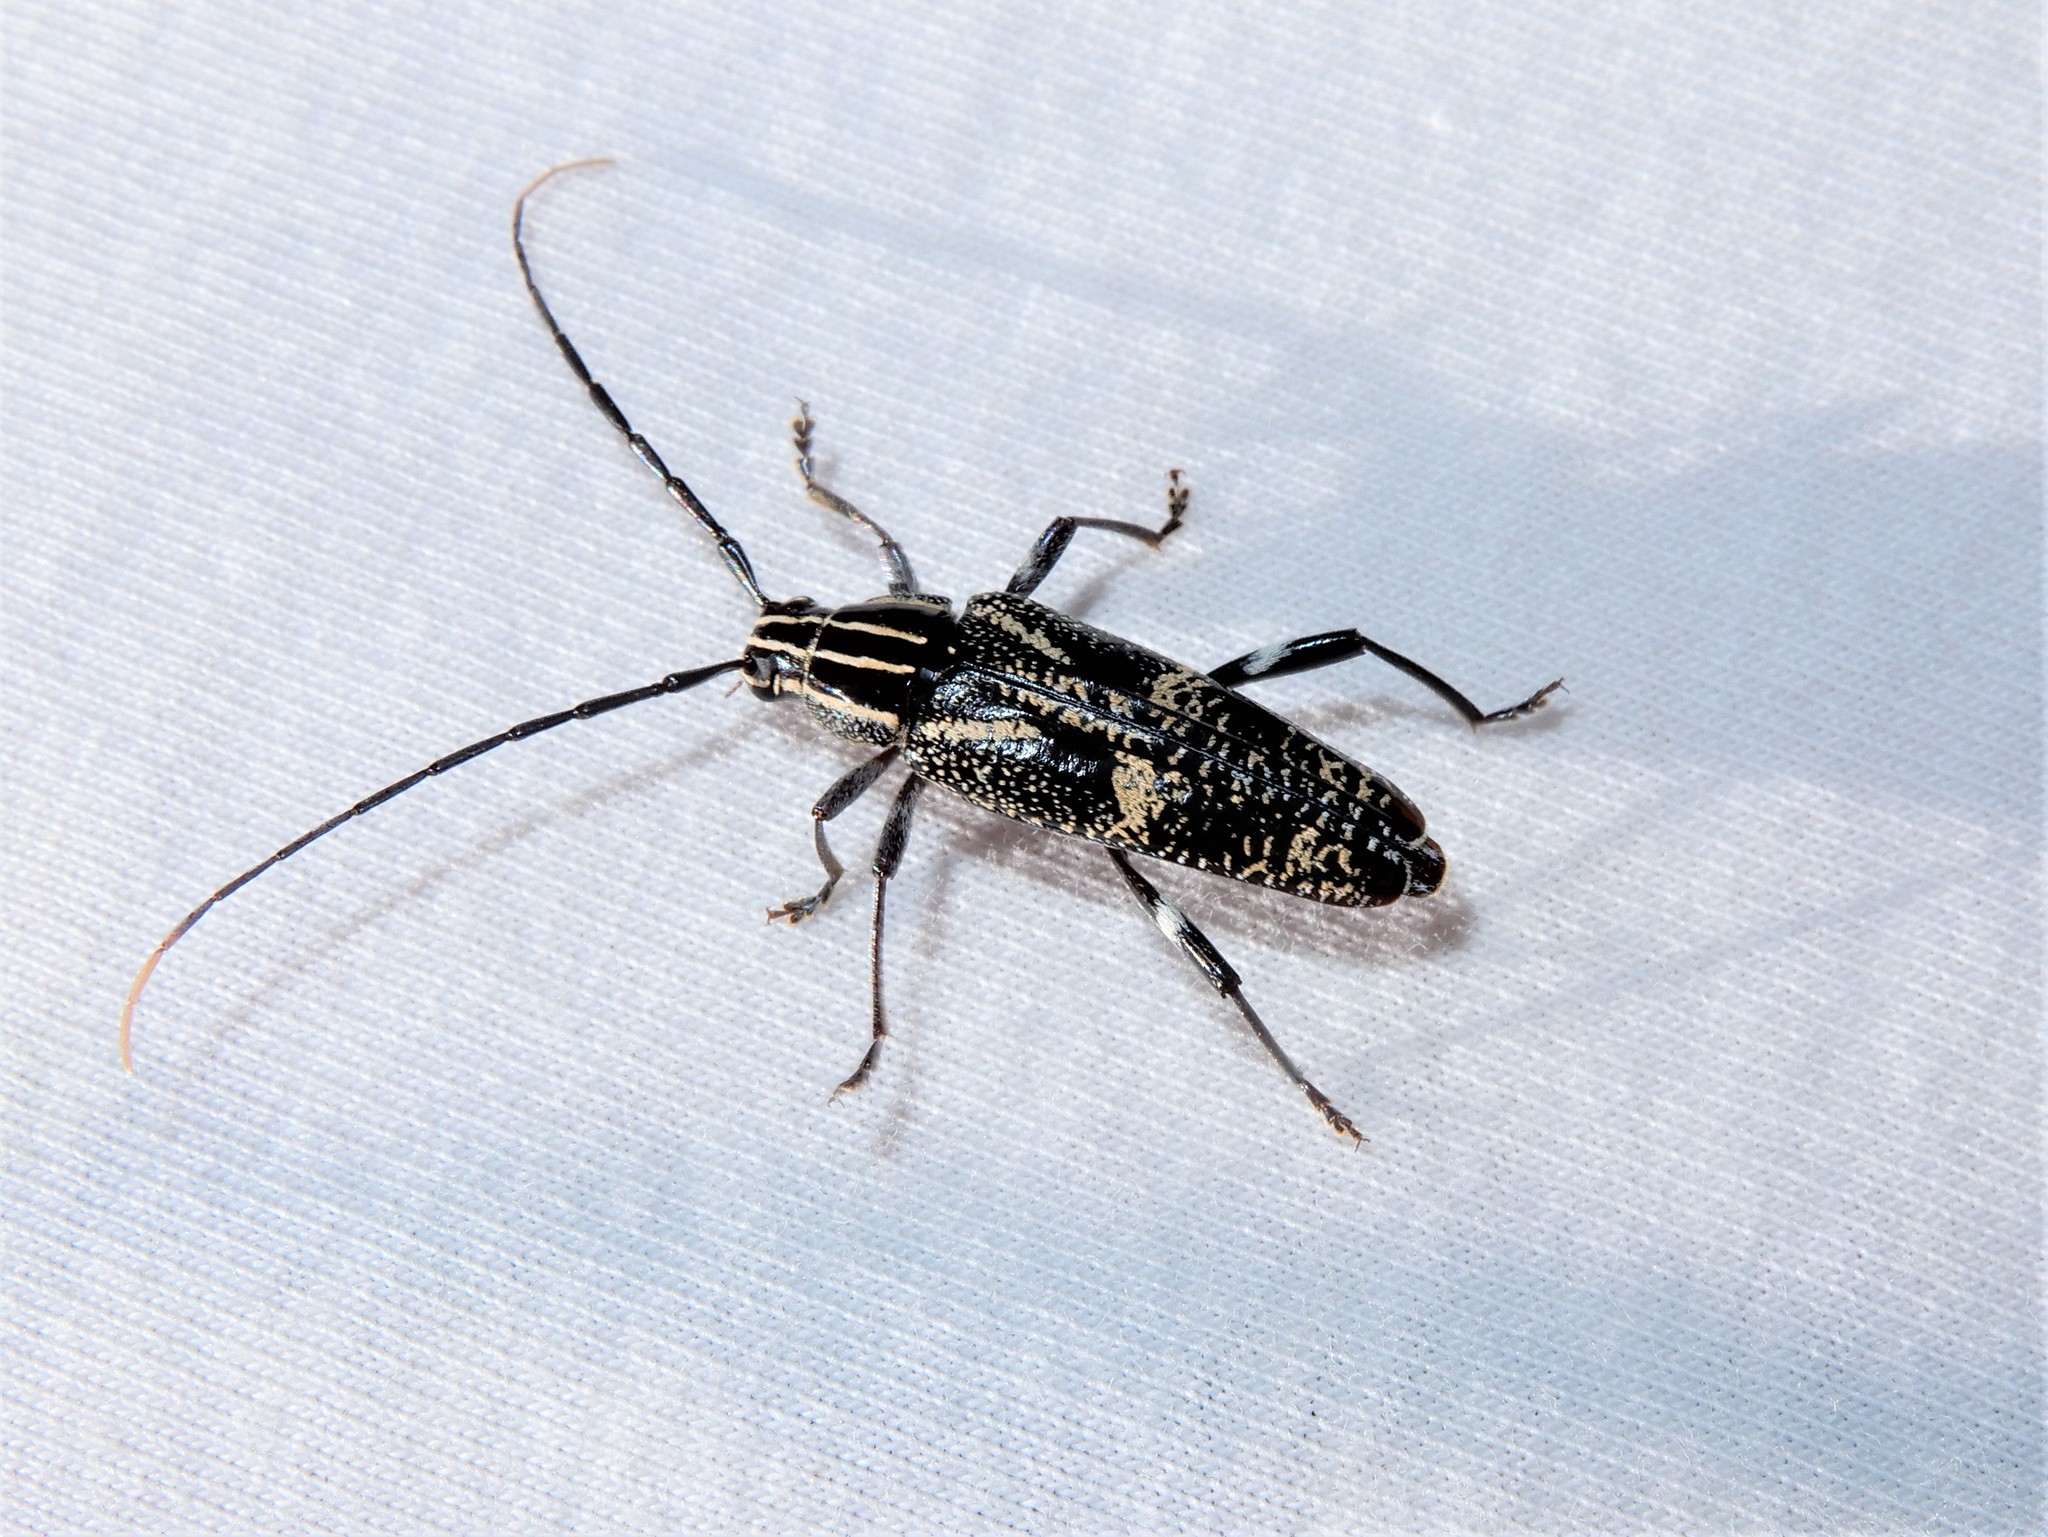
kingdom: Animalia
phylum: Arthropoda
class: Insecta
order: Coleoptera
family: Cerambycidae
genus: Coptomma
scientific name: Coptomma variegatum
